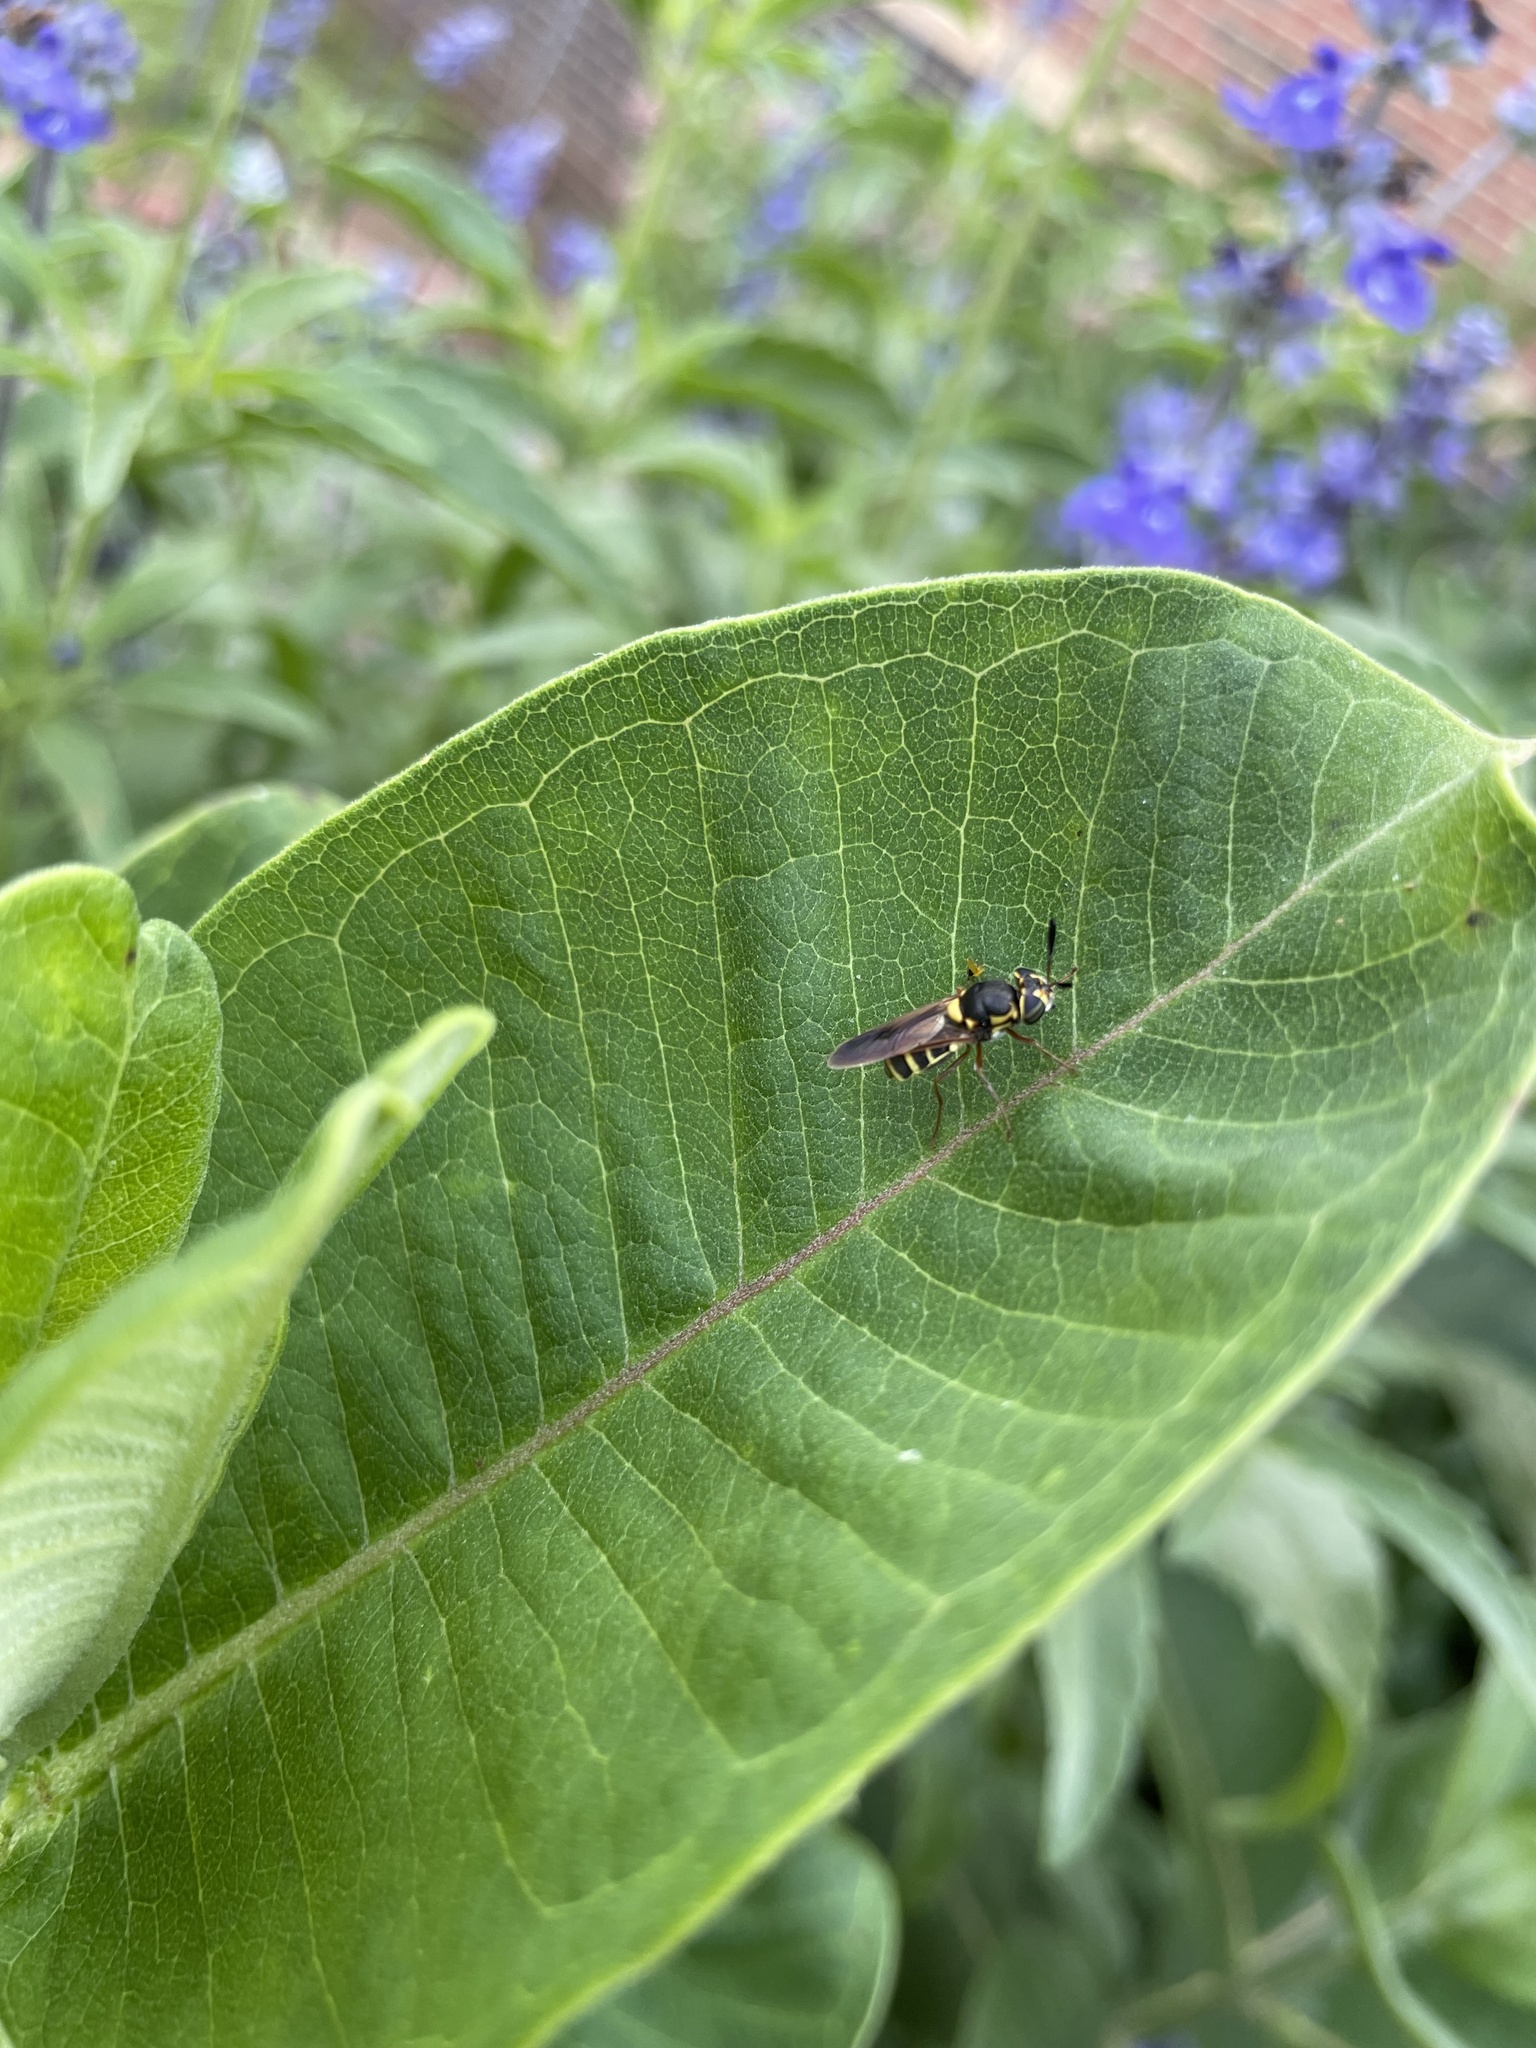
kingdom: Animalia
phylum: Arthropoda
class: Insecta
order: Diptera
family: Stratiomyidae
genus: Hoplitimyia
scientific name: Hoplitimyia constans
